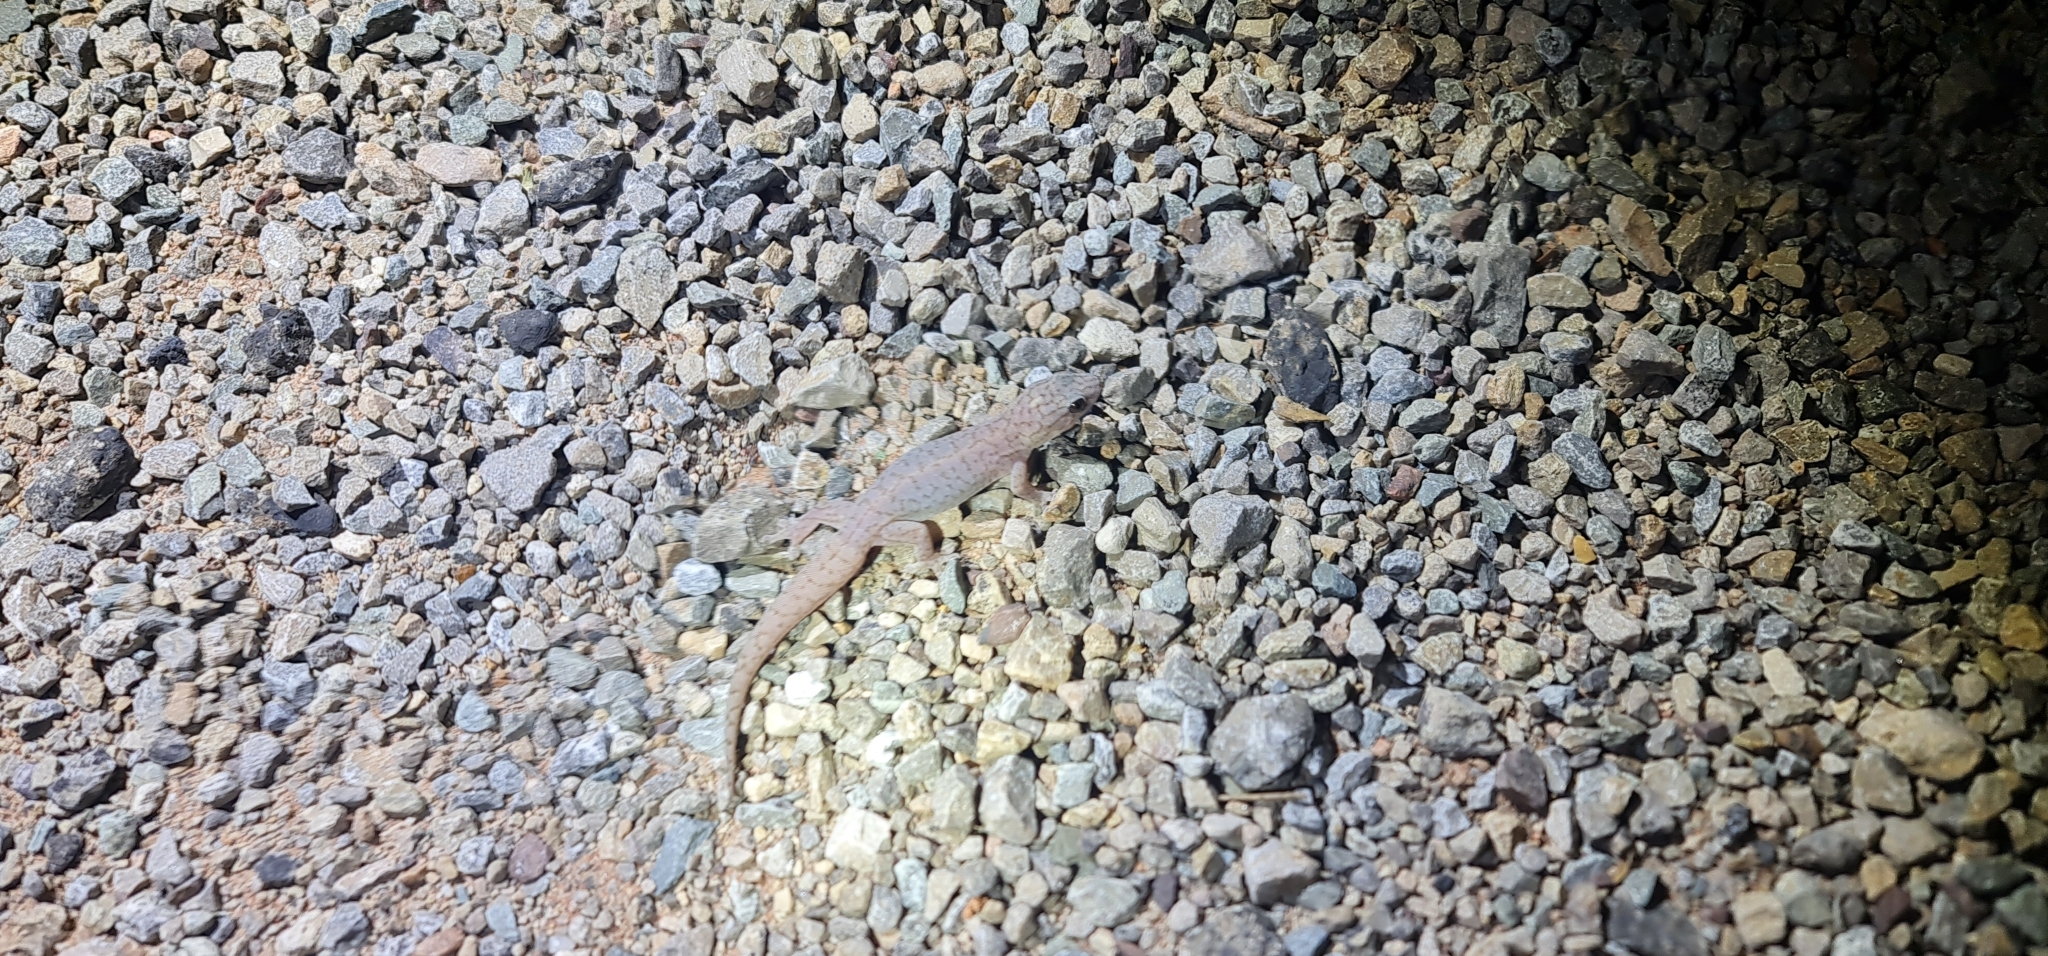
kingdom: Animalia
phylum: Chordata
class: Squamata
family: Gekkonidae
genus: Gehyra
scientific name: Gehyra purpurascens
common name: Purplish dtella
